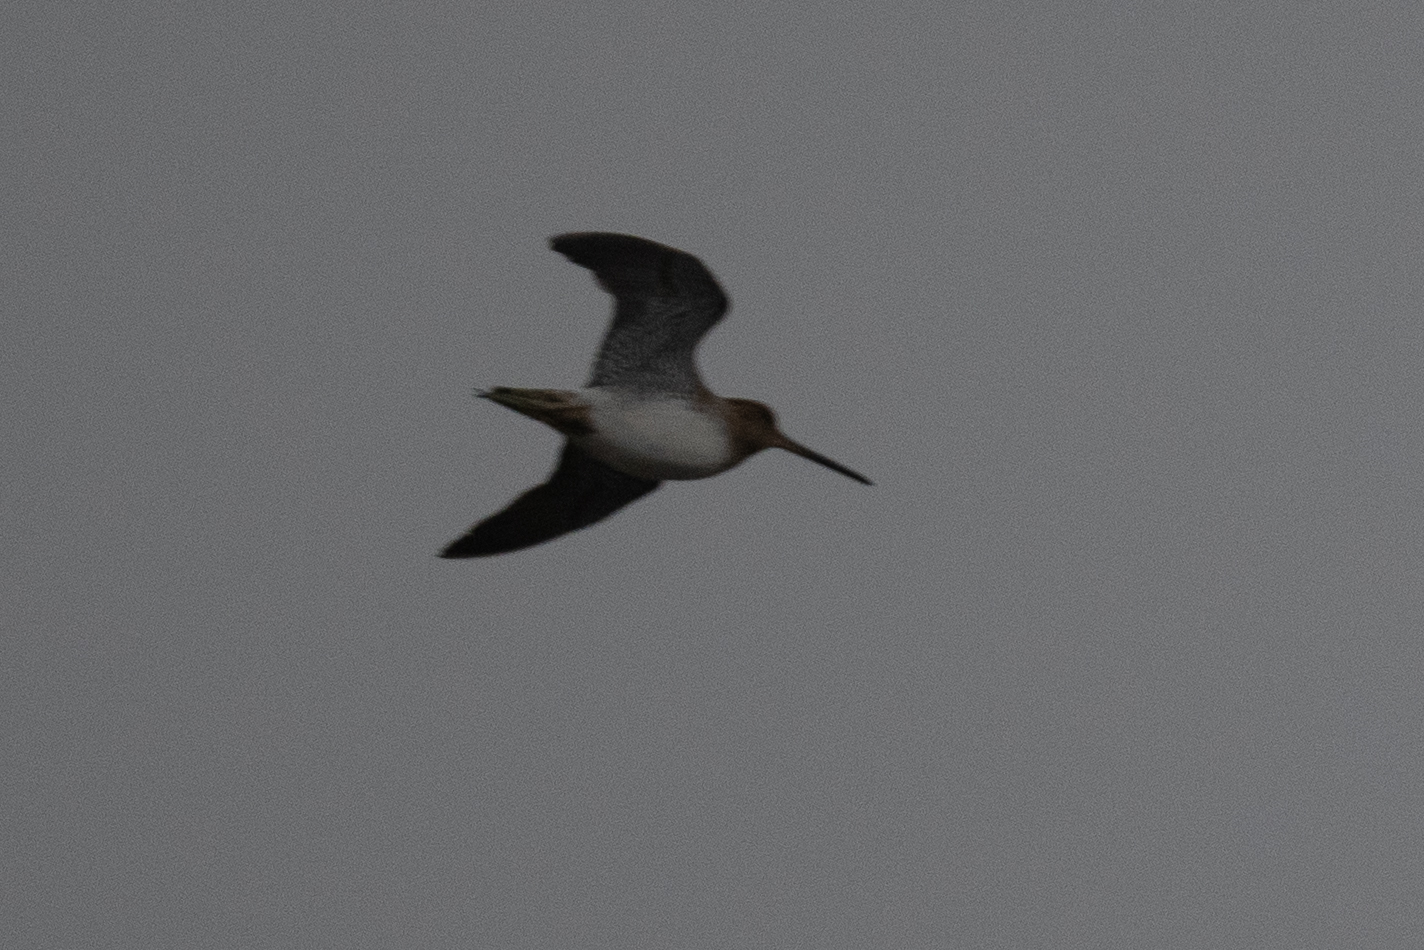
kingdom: Animalia
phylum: Chordata
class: Aves
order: Charadriiformes
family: Scolopacidae
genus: Gallinago
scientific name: Gallinago delicata
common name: Wilson's snipe
